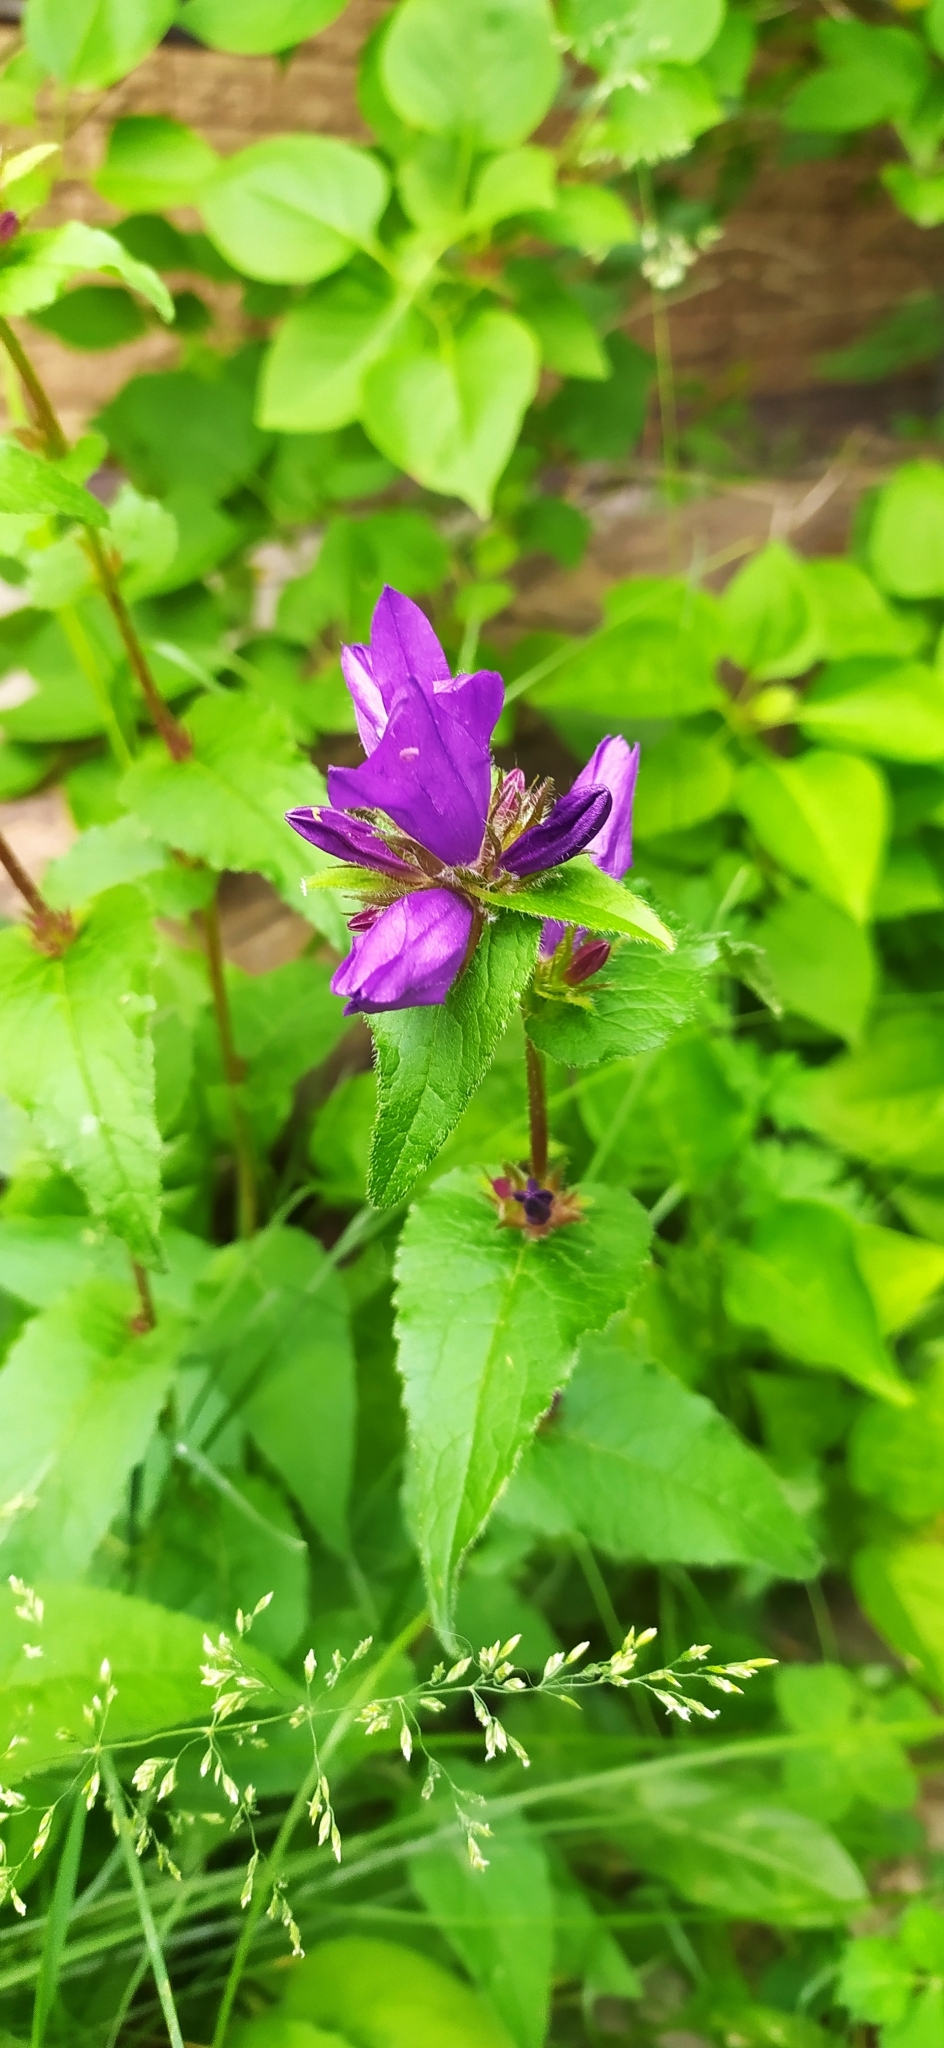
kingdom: Plantae
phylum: Tracheophyta
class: Magnoliopsida
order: Asterales
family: Campanulaceae
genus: Campanula
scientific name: Campanula glomerata
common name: Clustered bellflower
